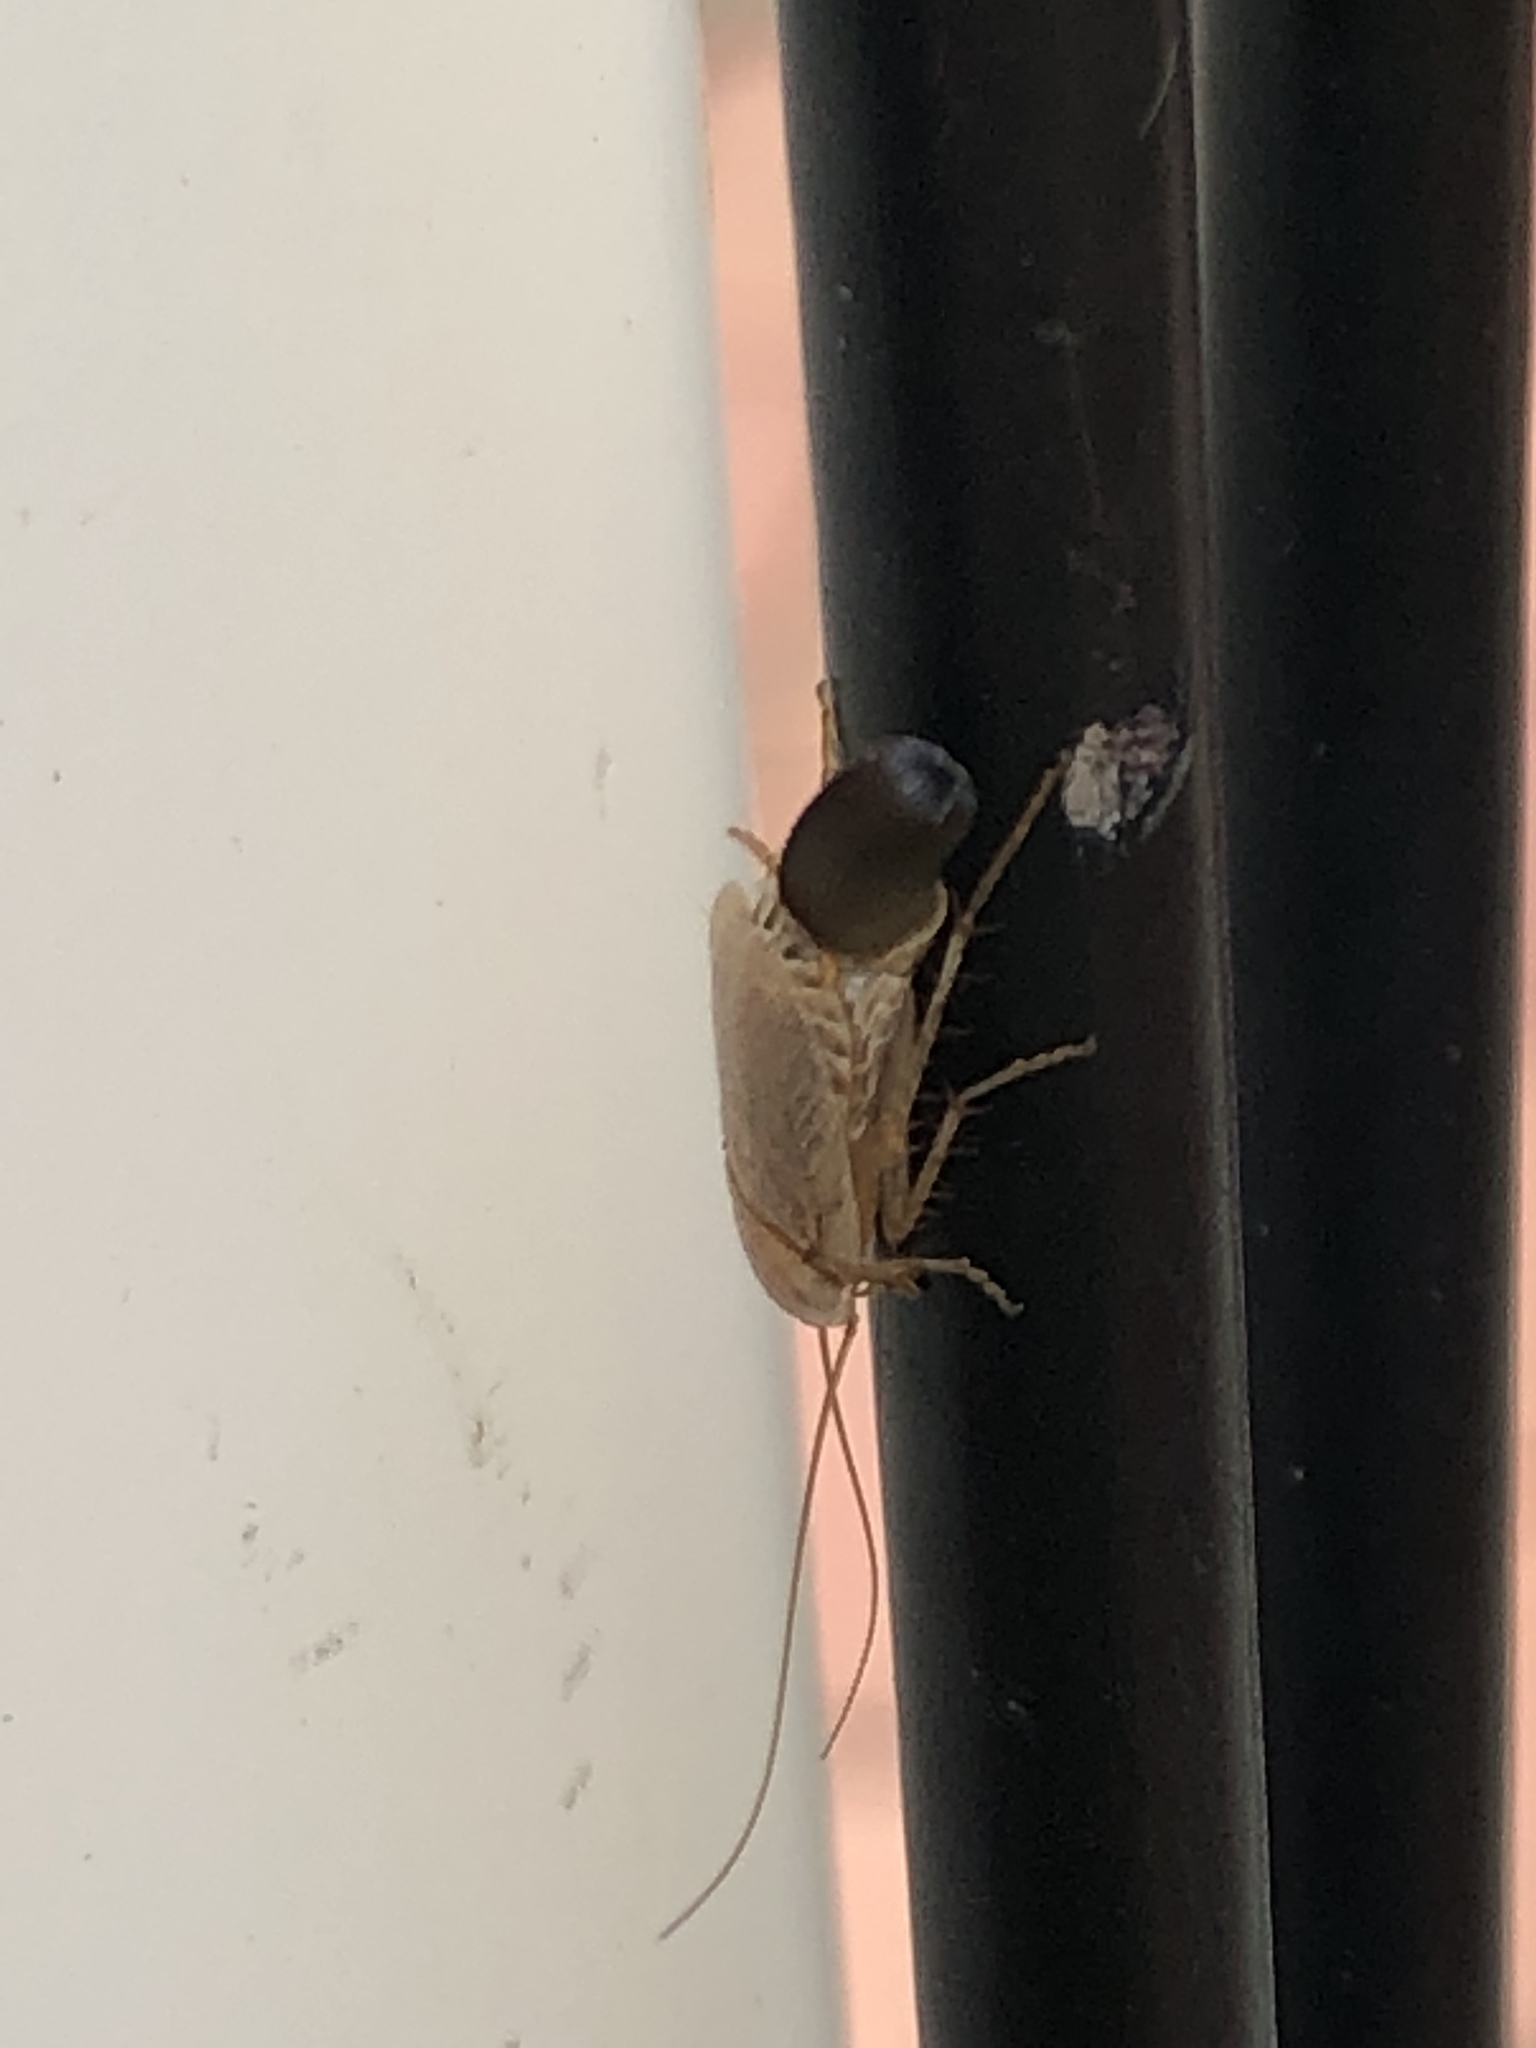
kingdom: Animalia
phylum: Arthropoda
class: Insecta
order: Blattodea
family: Ectobiidae
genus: Ectobius
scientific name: Ectobius lapponicus
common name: Dusky cockroach
